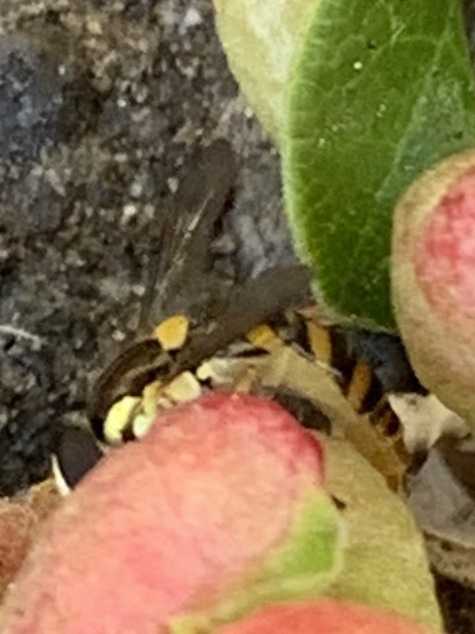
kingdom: Animalia
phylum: Arthropoda
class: Insecta
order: Diptera
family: Syrphidae
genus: Sphaerophoria
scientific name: Sphaerophoria contigua
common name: Tufted globetail
